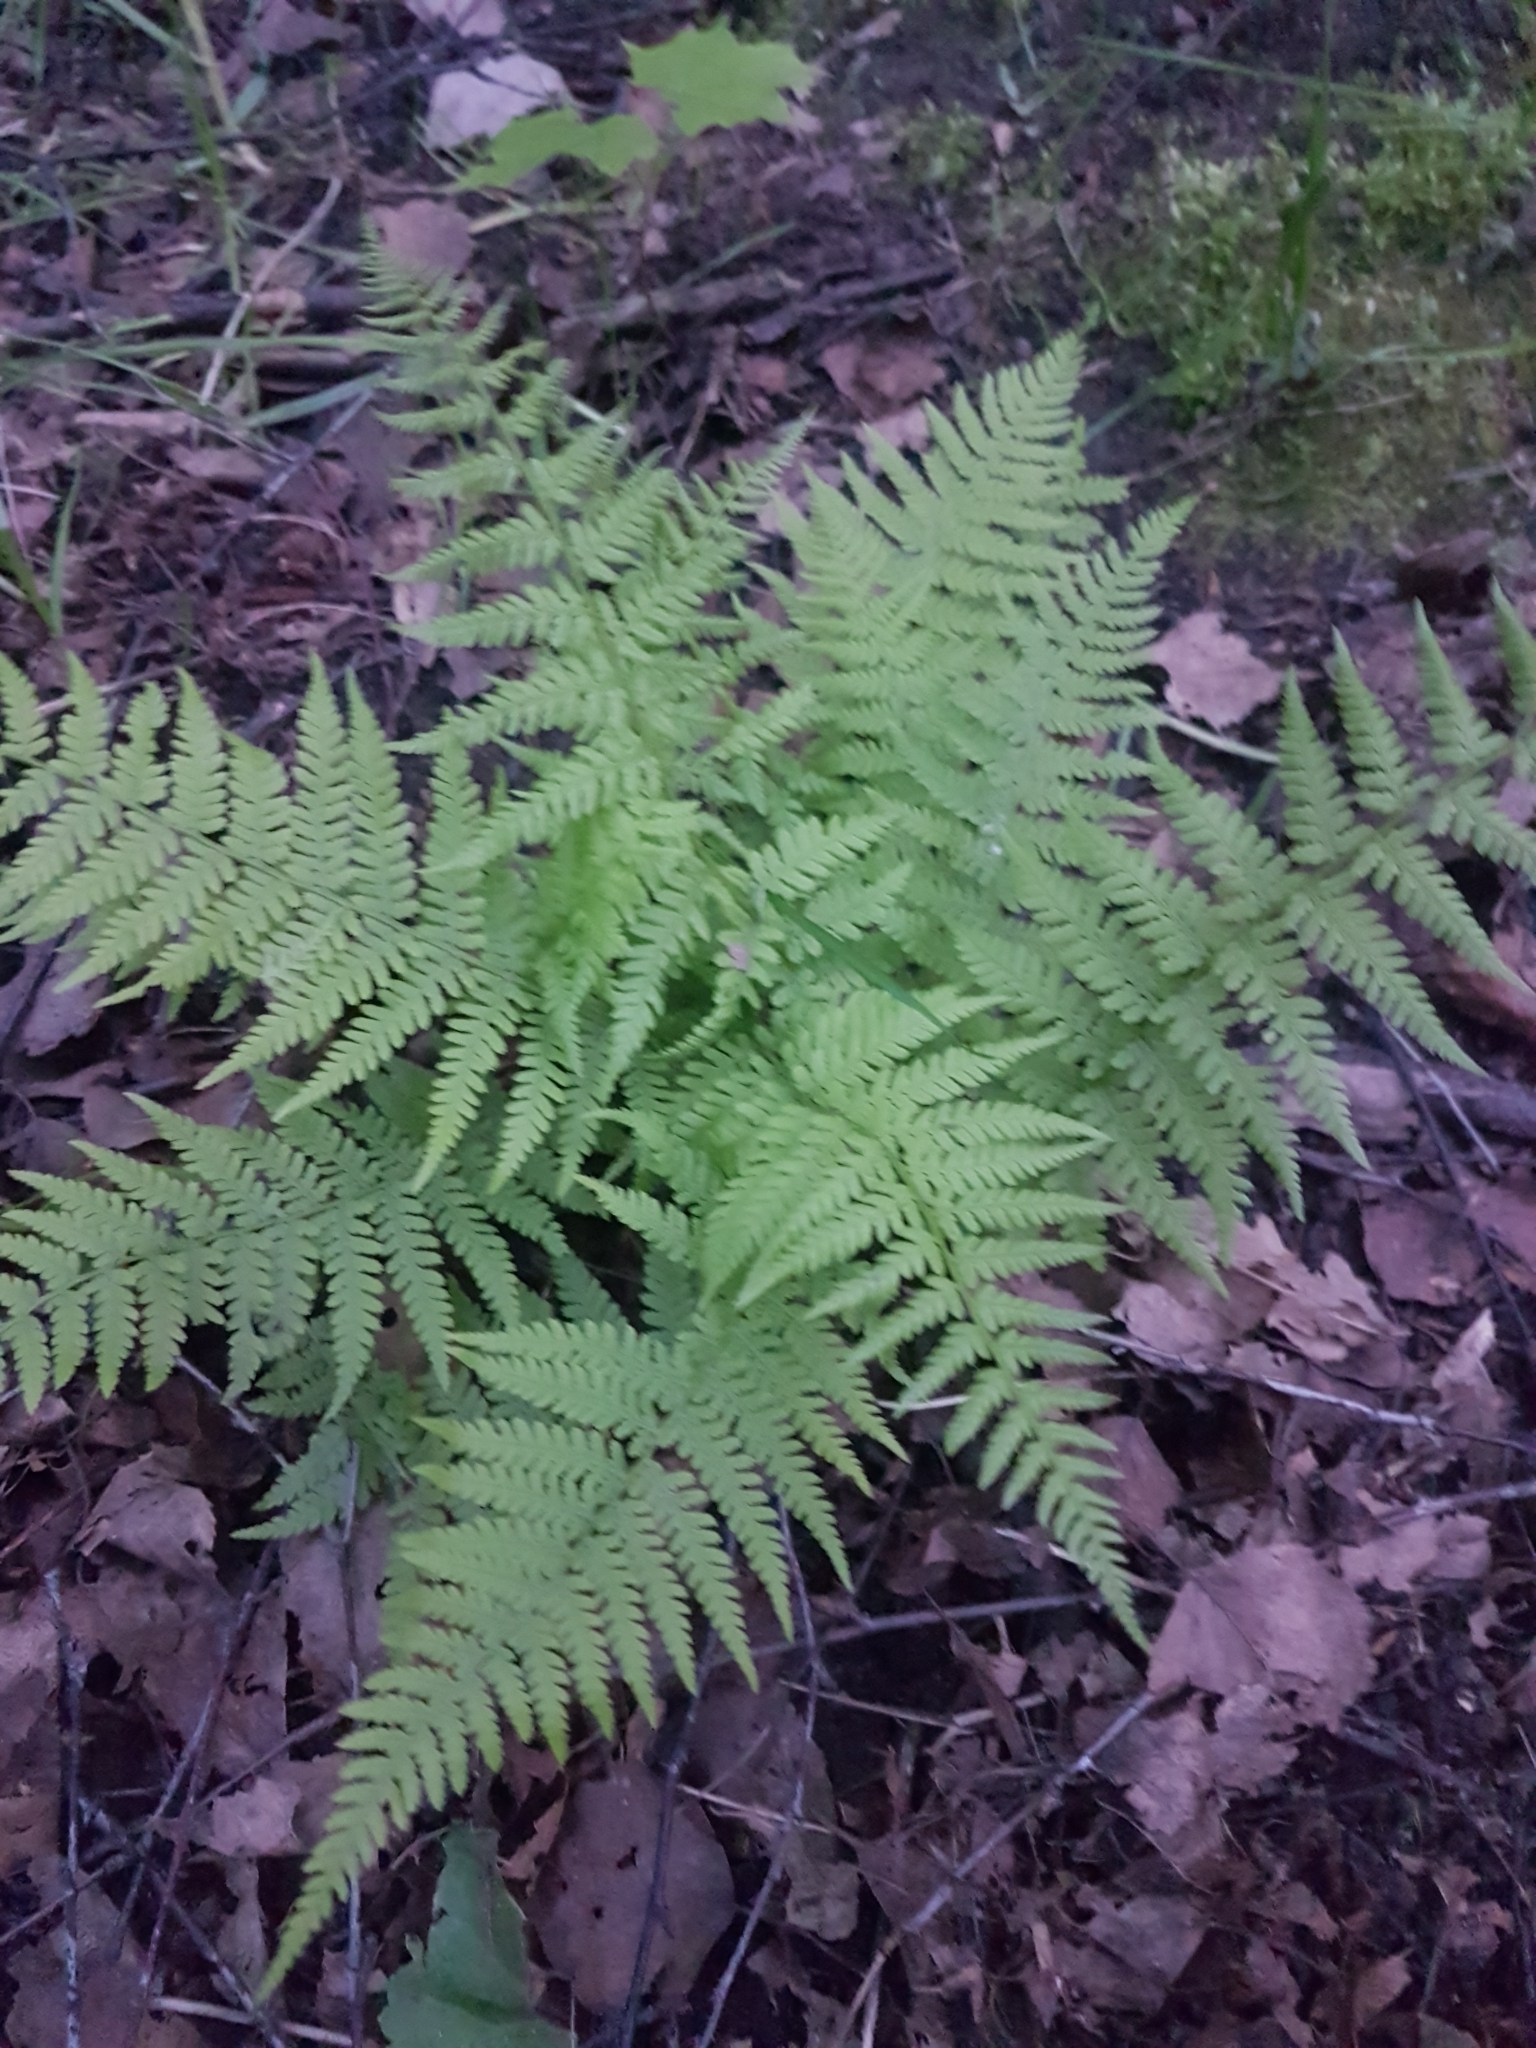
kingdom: Plantae
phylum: Tracheophyta
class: Polypodiopsida
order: Polypodiales
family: Athyriaceae
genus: Athyrium
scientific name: Athyrium filix-femina
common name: Lady fern
